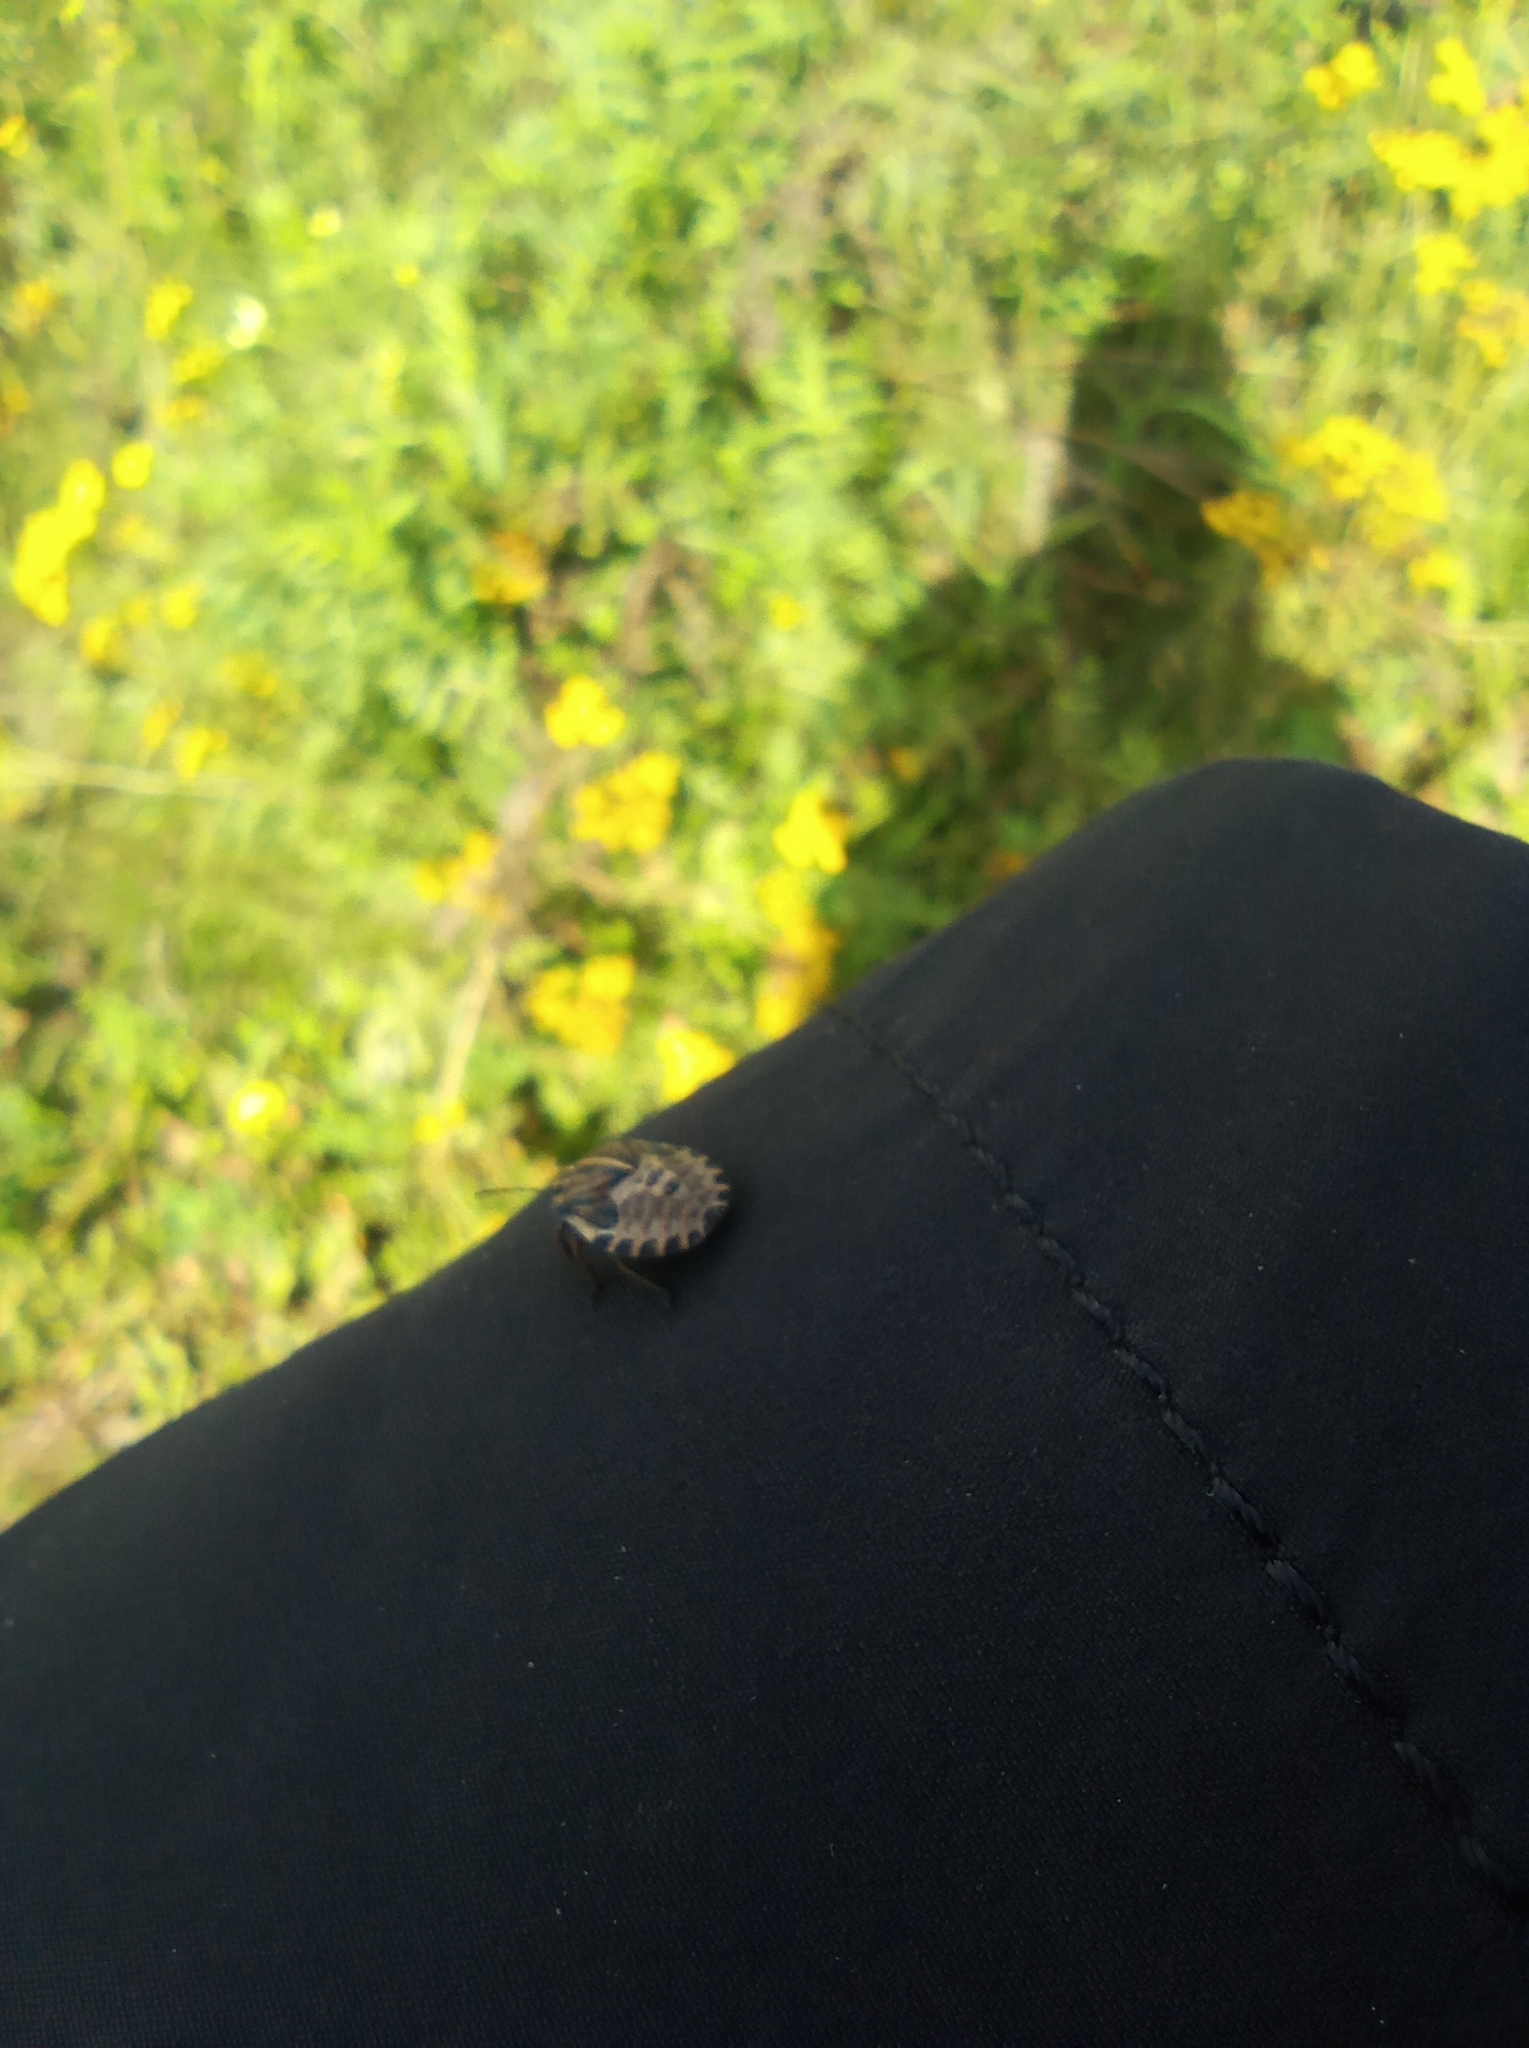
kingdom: Animalia
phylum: Arthropoda
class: Insecta
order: Hemiptera
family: Pentatomidae
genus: Graphosoma
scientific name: Graphosoma italicum
